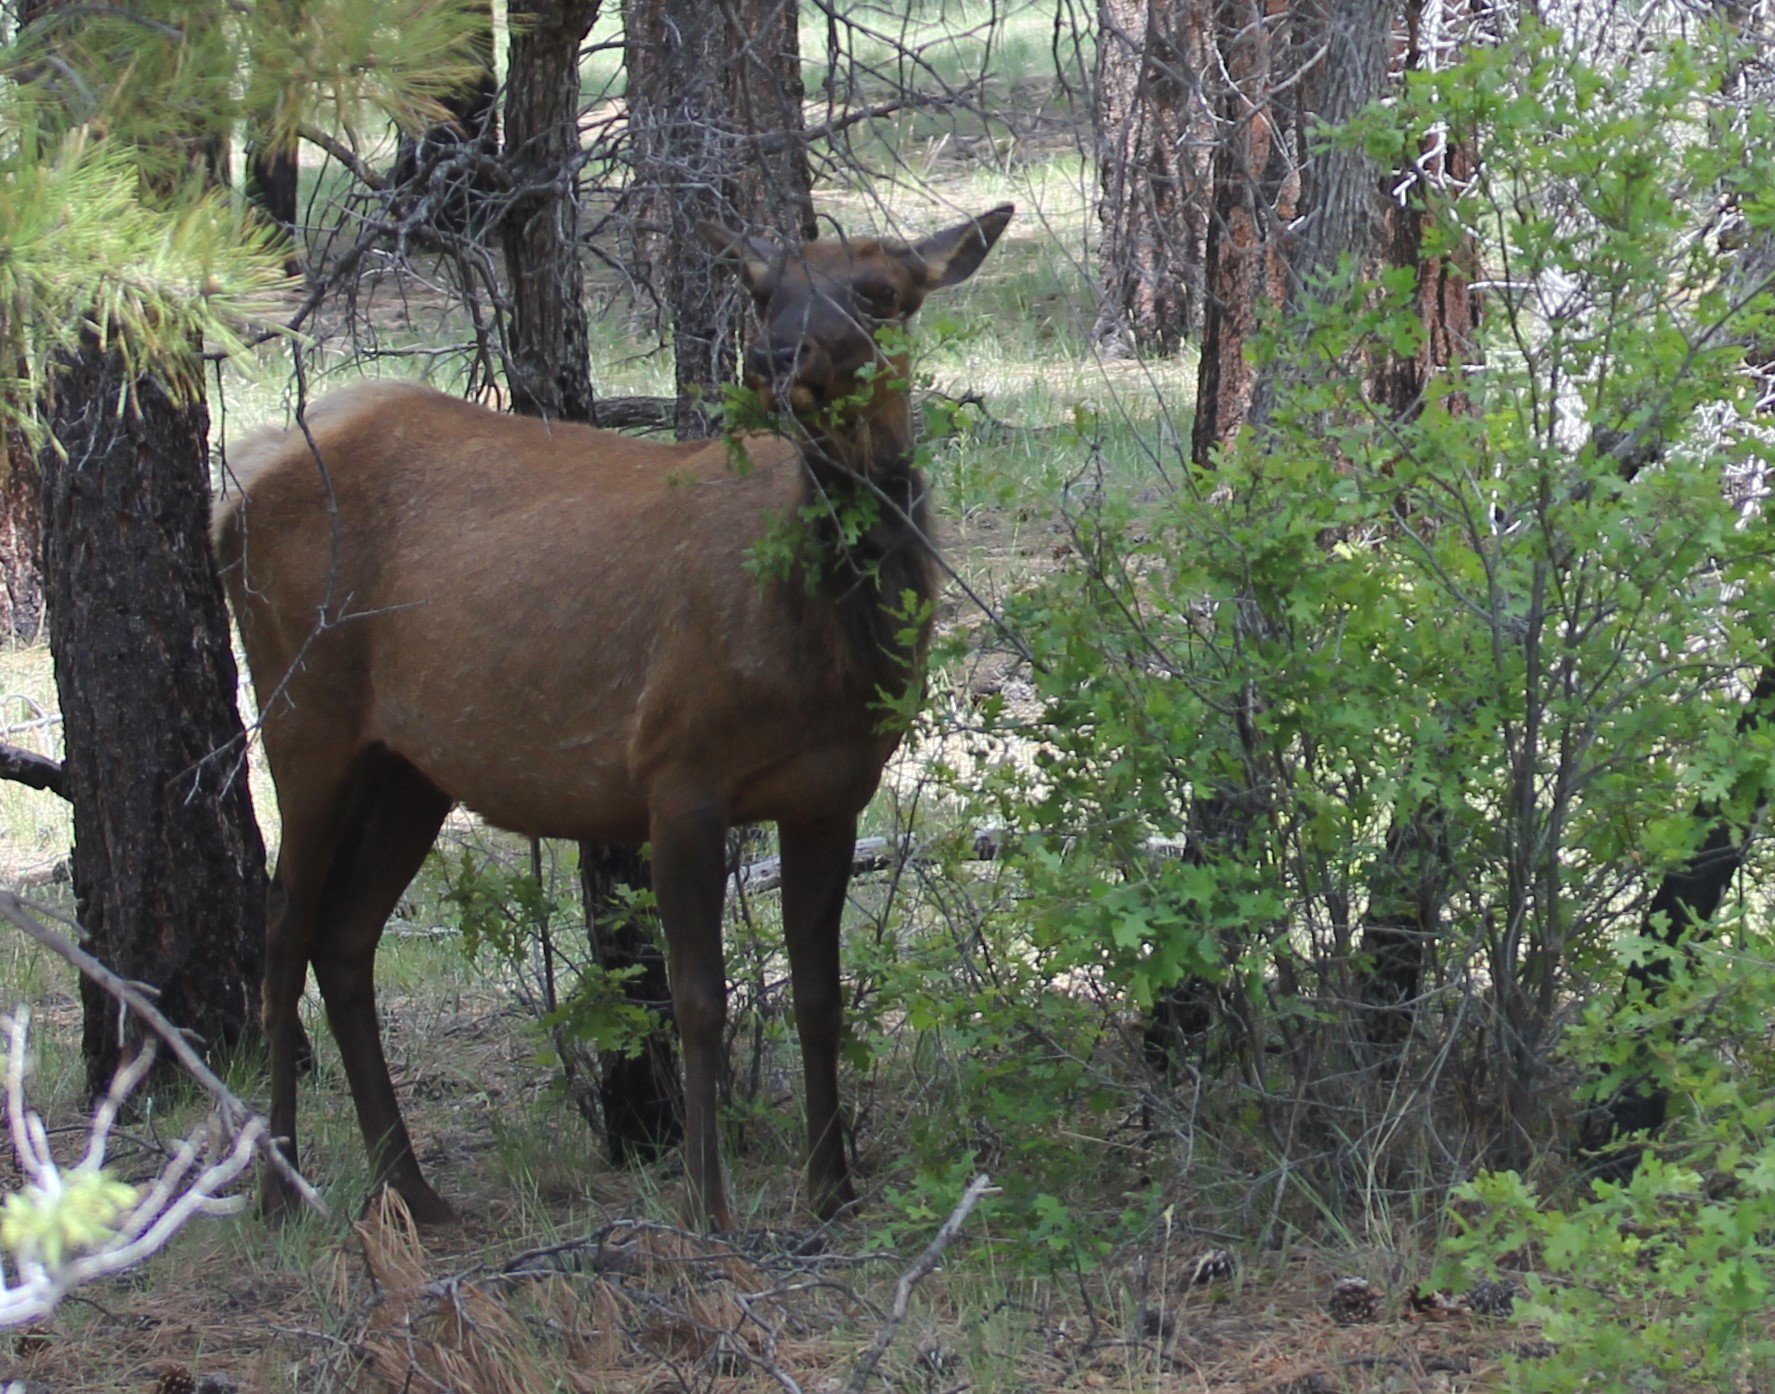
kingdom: Animalia
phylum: Chordata
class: Mammalia
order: Artiodactyla
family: Cervidae
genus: Cervus
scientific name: Cervus elaphus
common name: Red deer
